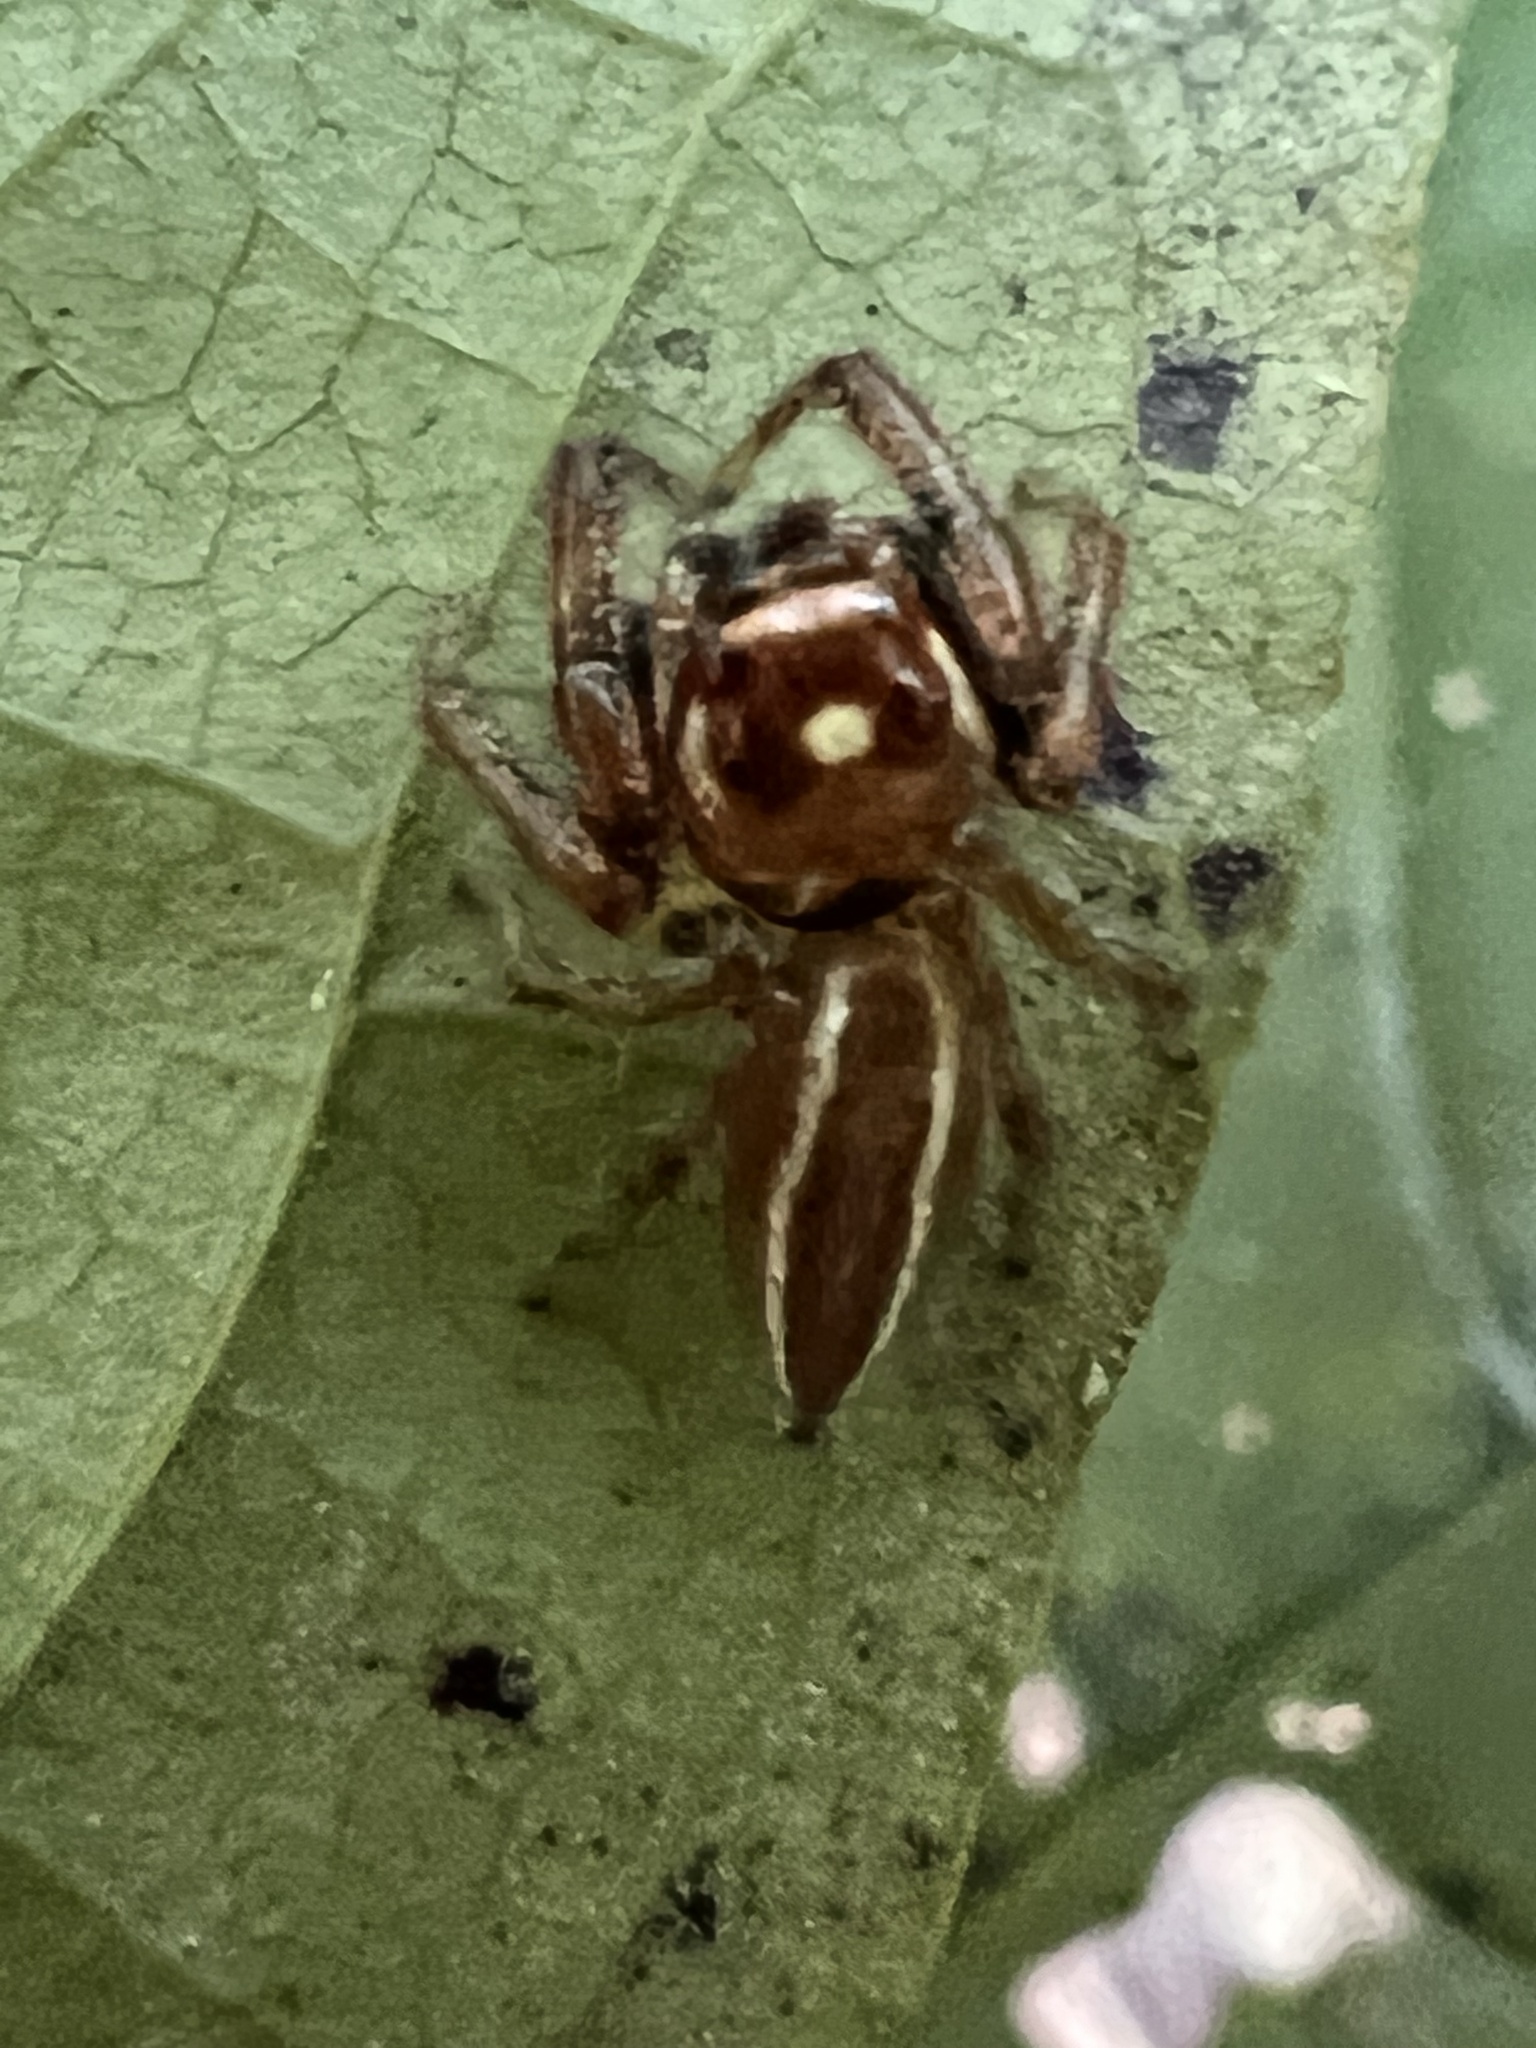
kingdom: Animalia
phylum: Arthropoda
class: Arachnida
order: Araneae
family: Salticidae
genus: Colonus
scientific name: Colonus sylvanus
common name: Jumping spiders
